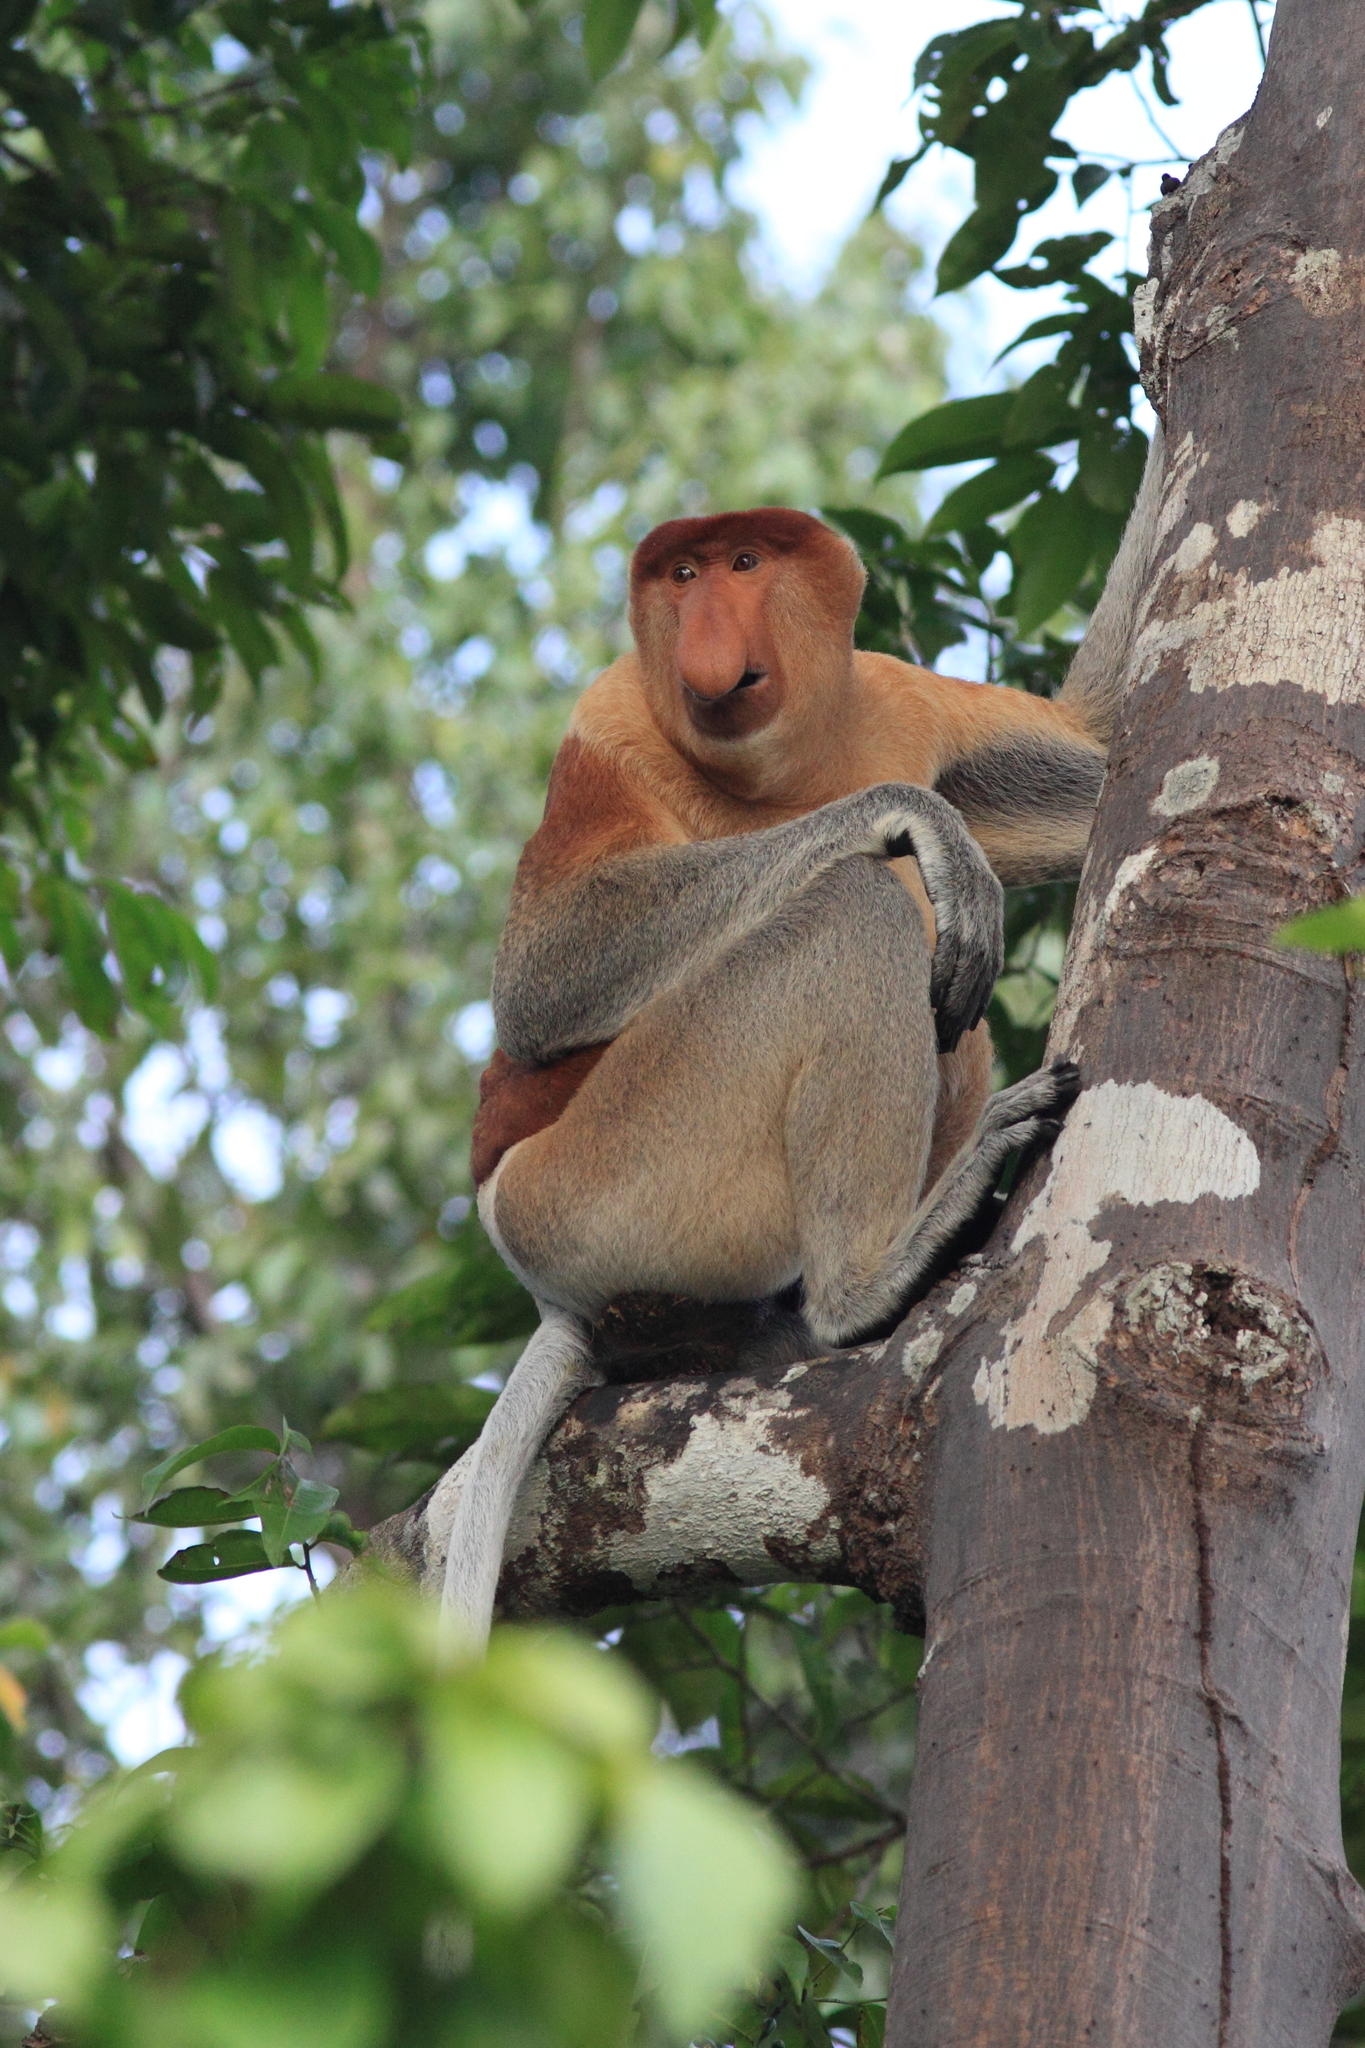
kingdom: Animalia
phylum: Chordata
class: Mammalia
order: Primates
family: Cercopithecidae
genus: Nasalis
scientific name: Nasalis larvatus
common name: Proboscis monkey
